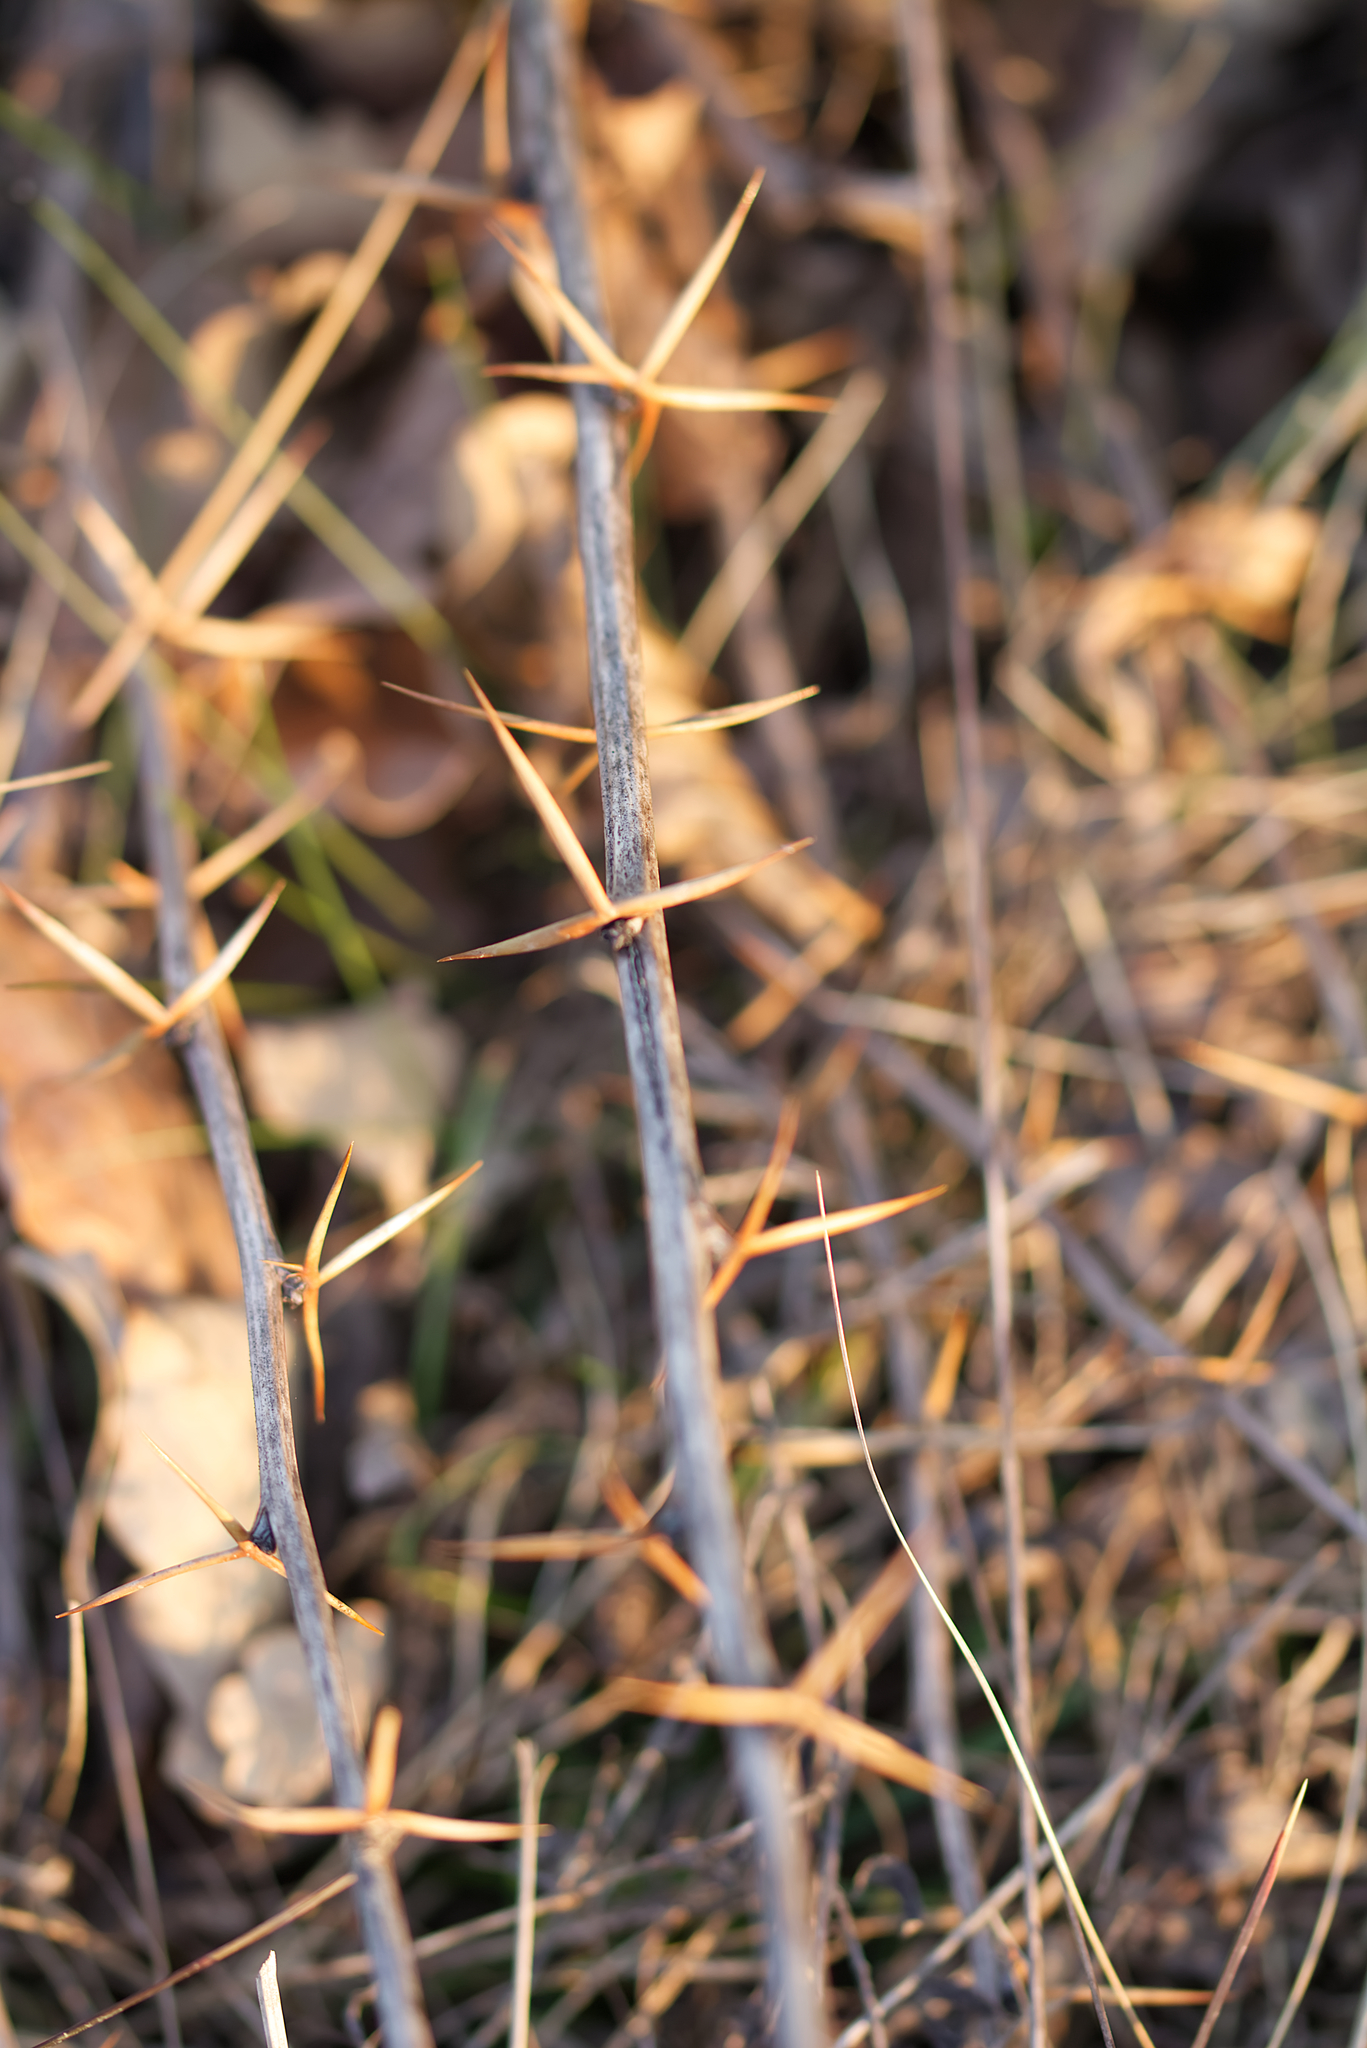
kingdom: Plantae
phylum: Tracheophyta
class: Magnoliopsida
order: Ranunculales
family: Berberidaceae
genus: Berberis
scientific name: Berberis vulgaris
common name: Barberry
